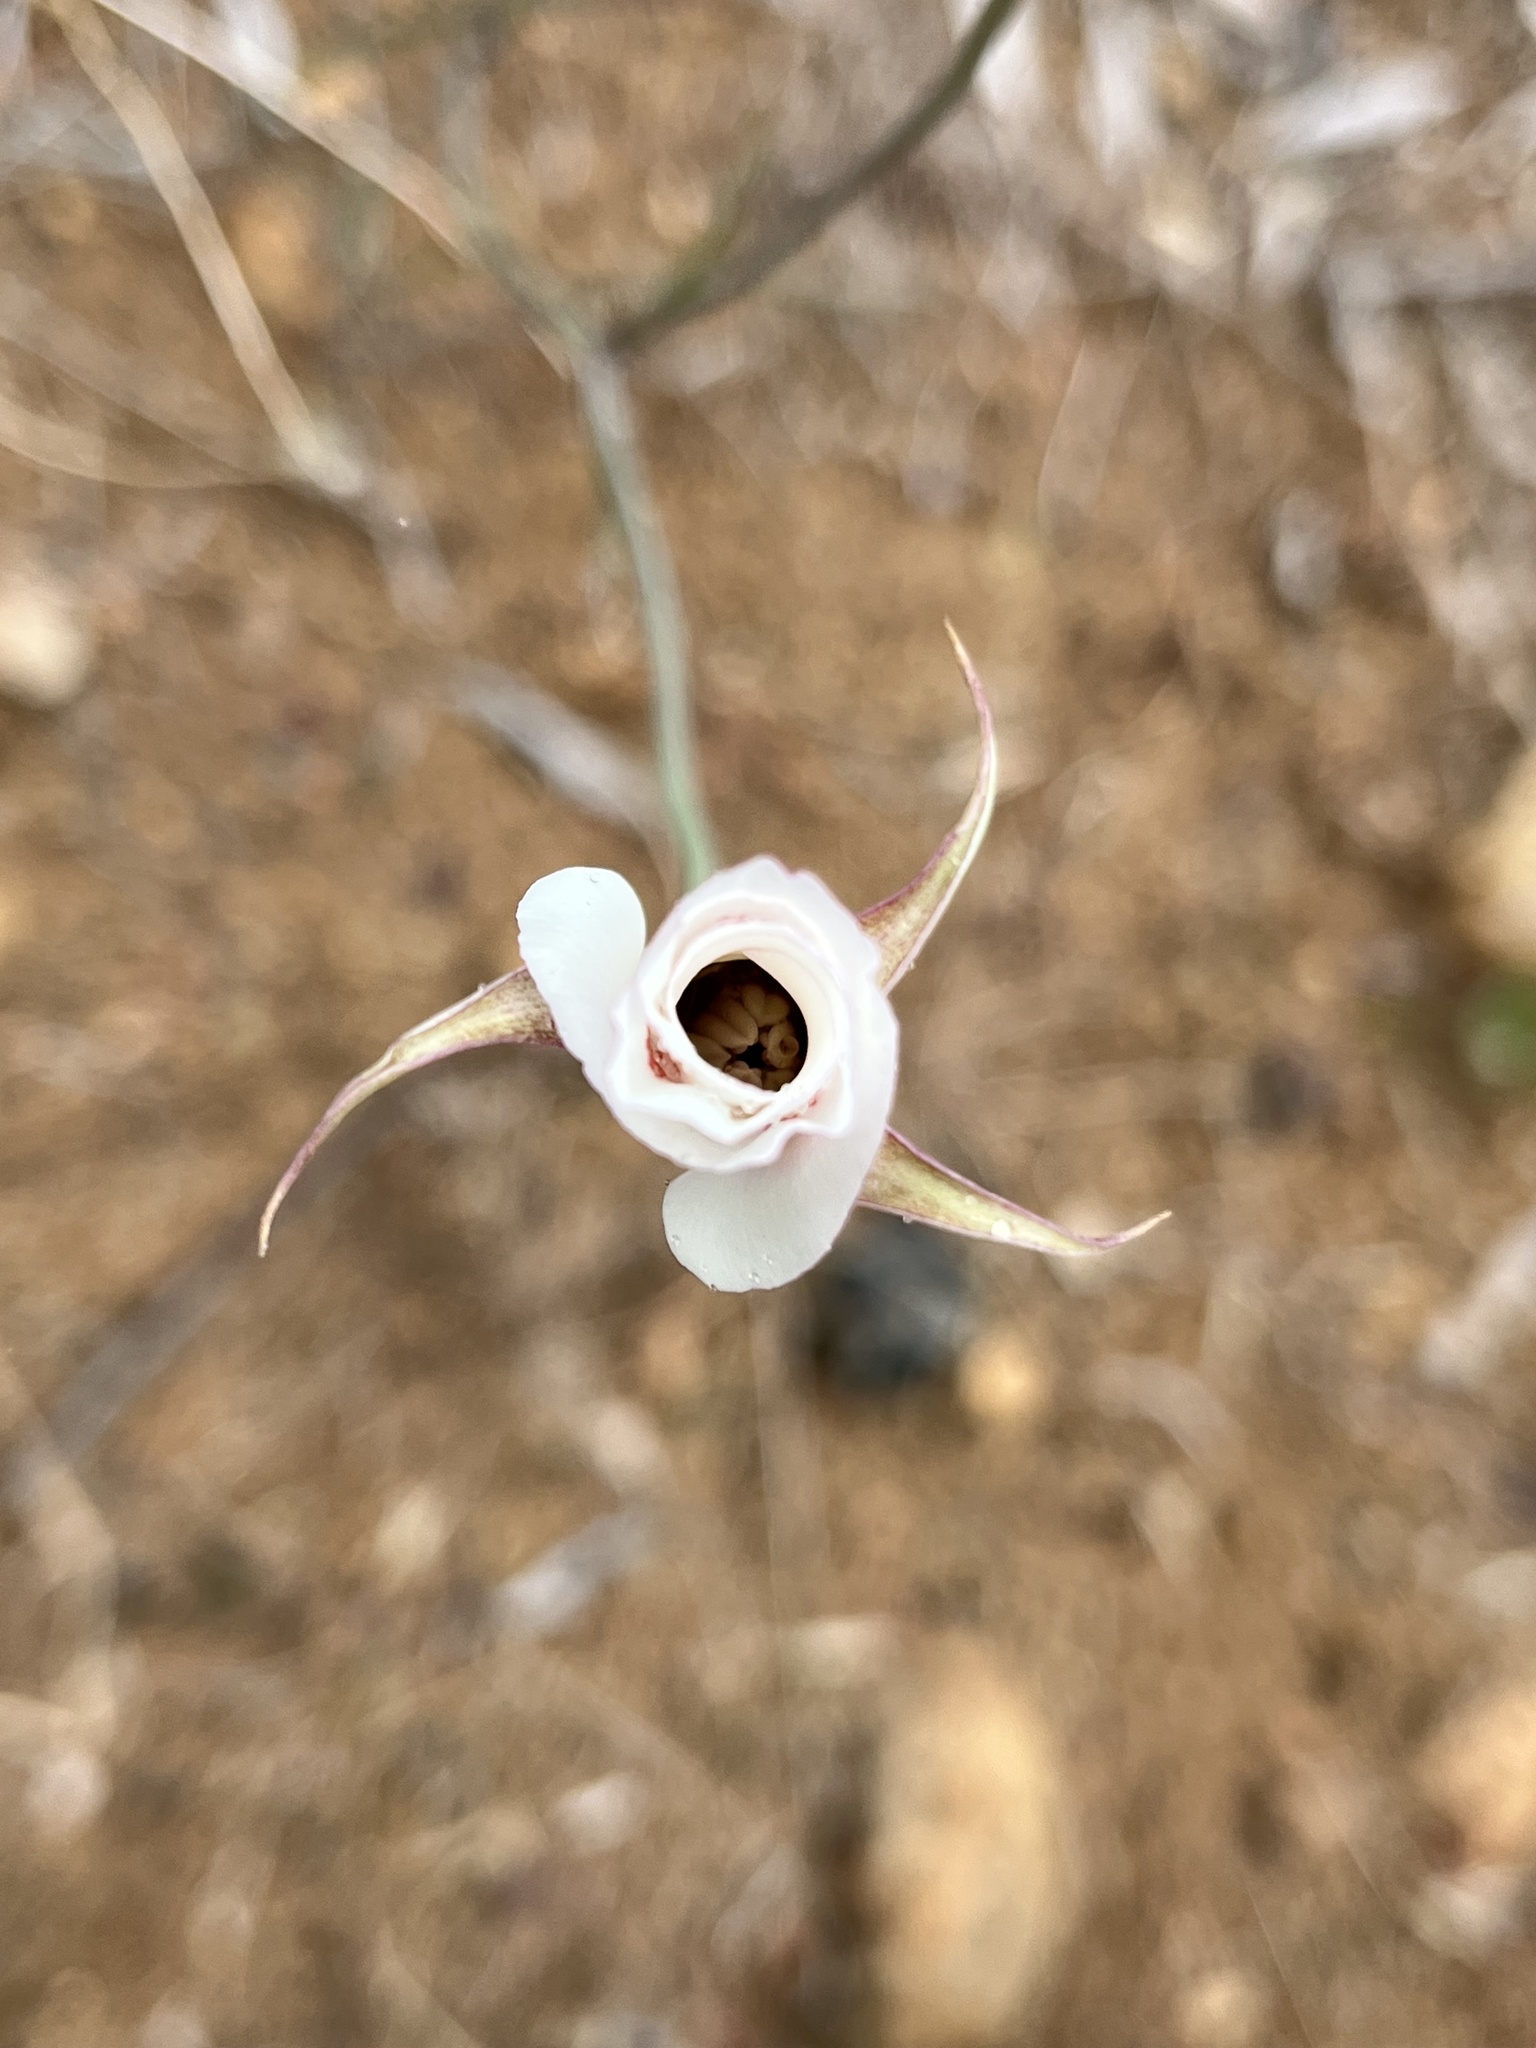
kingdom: Plantae
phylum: Tracheophyta
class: Liliopsida
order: Liliales
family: Liliaceae
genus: Calochortus
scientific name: Calochortus venustus
